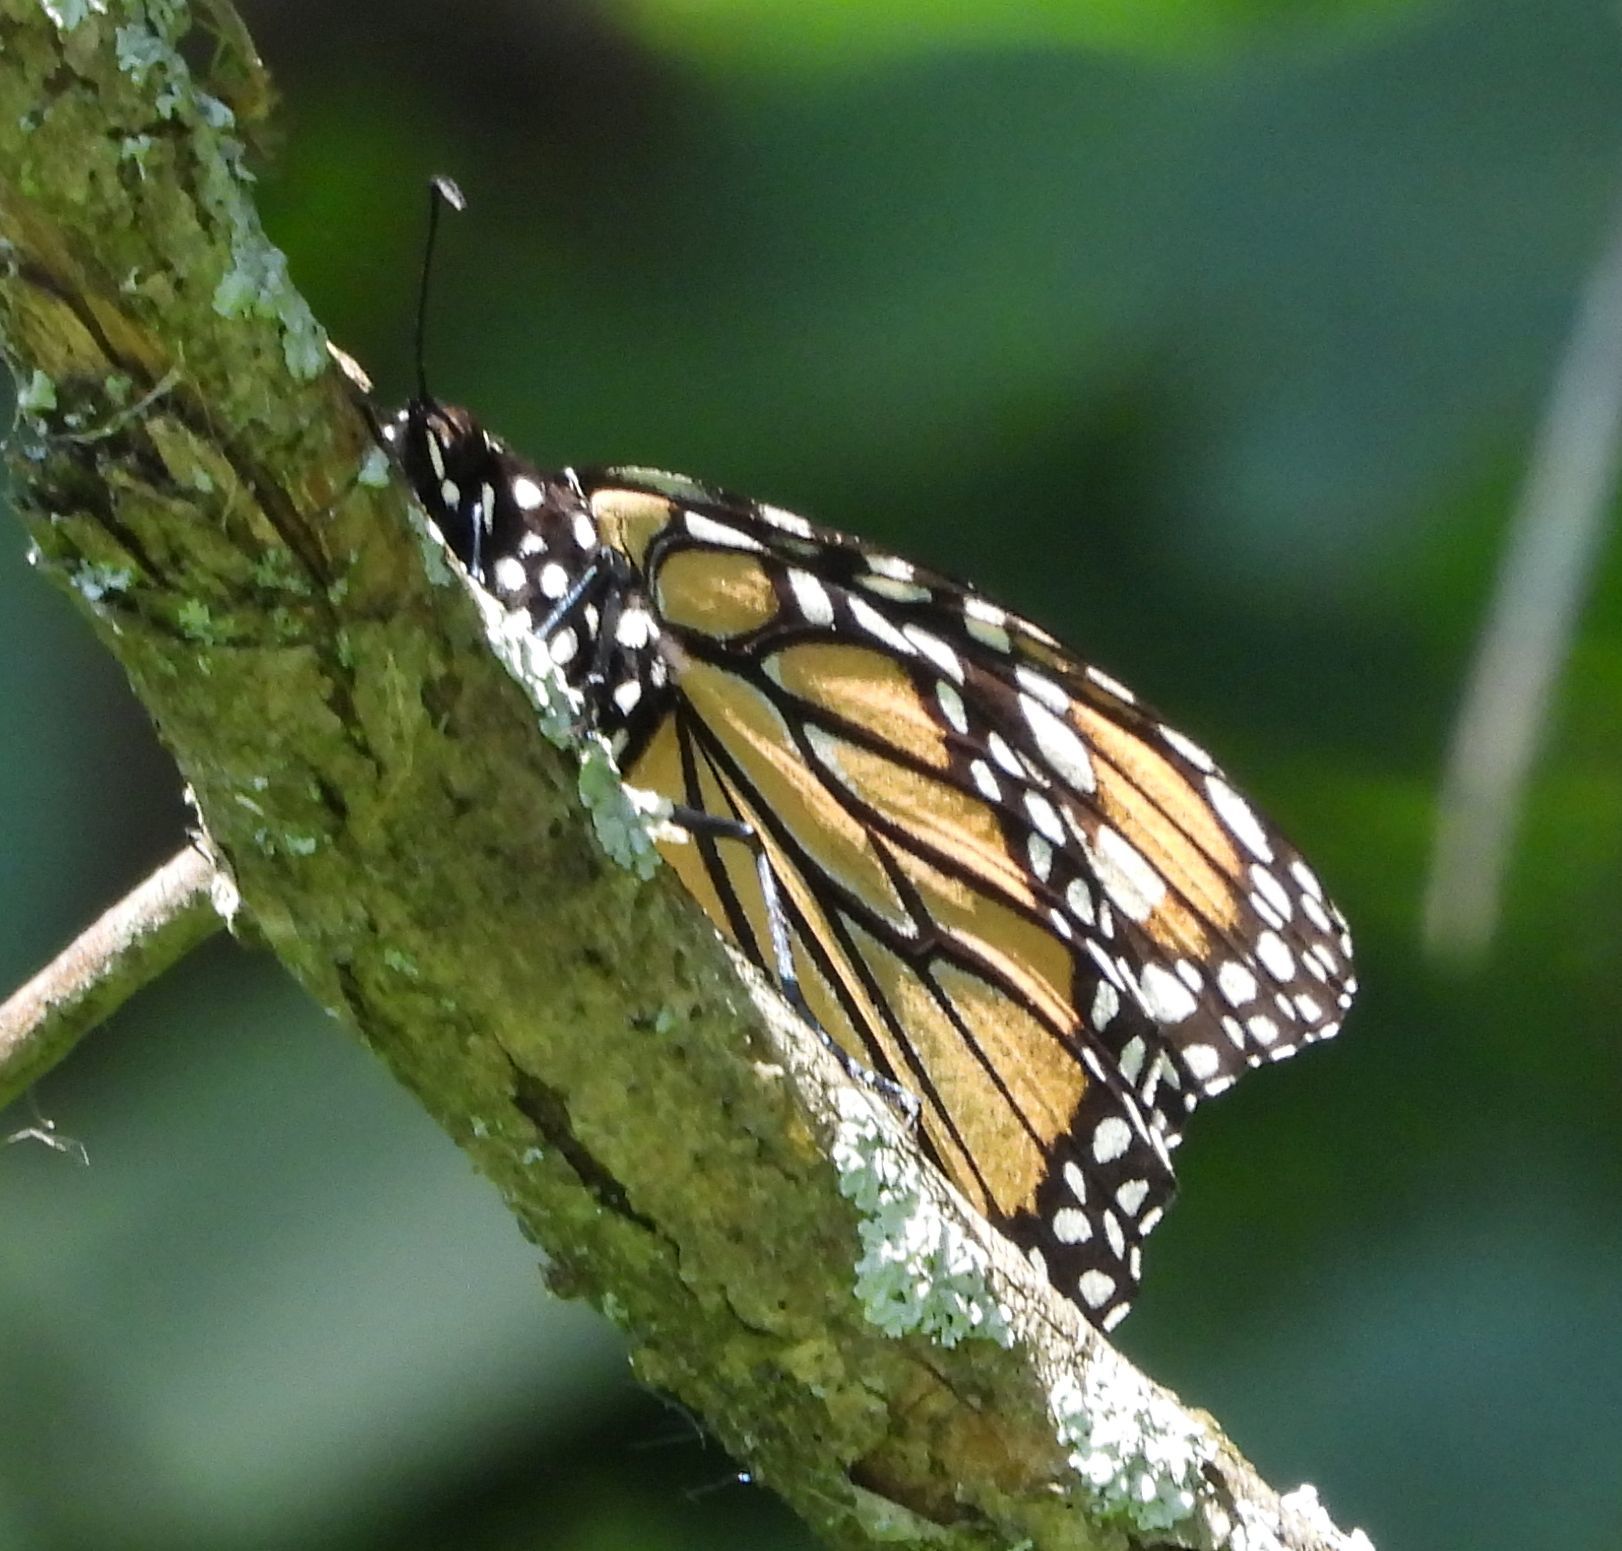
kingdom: Animalia
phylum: Arthropoda
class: Insecta
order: Lepidoptera
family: Nymphalidae
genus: Danaus
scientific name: Danaus plexippus
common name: Monarch
